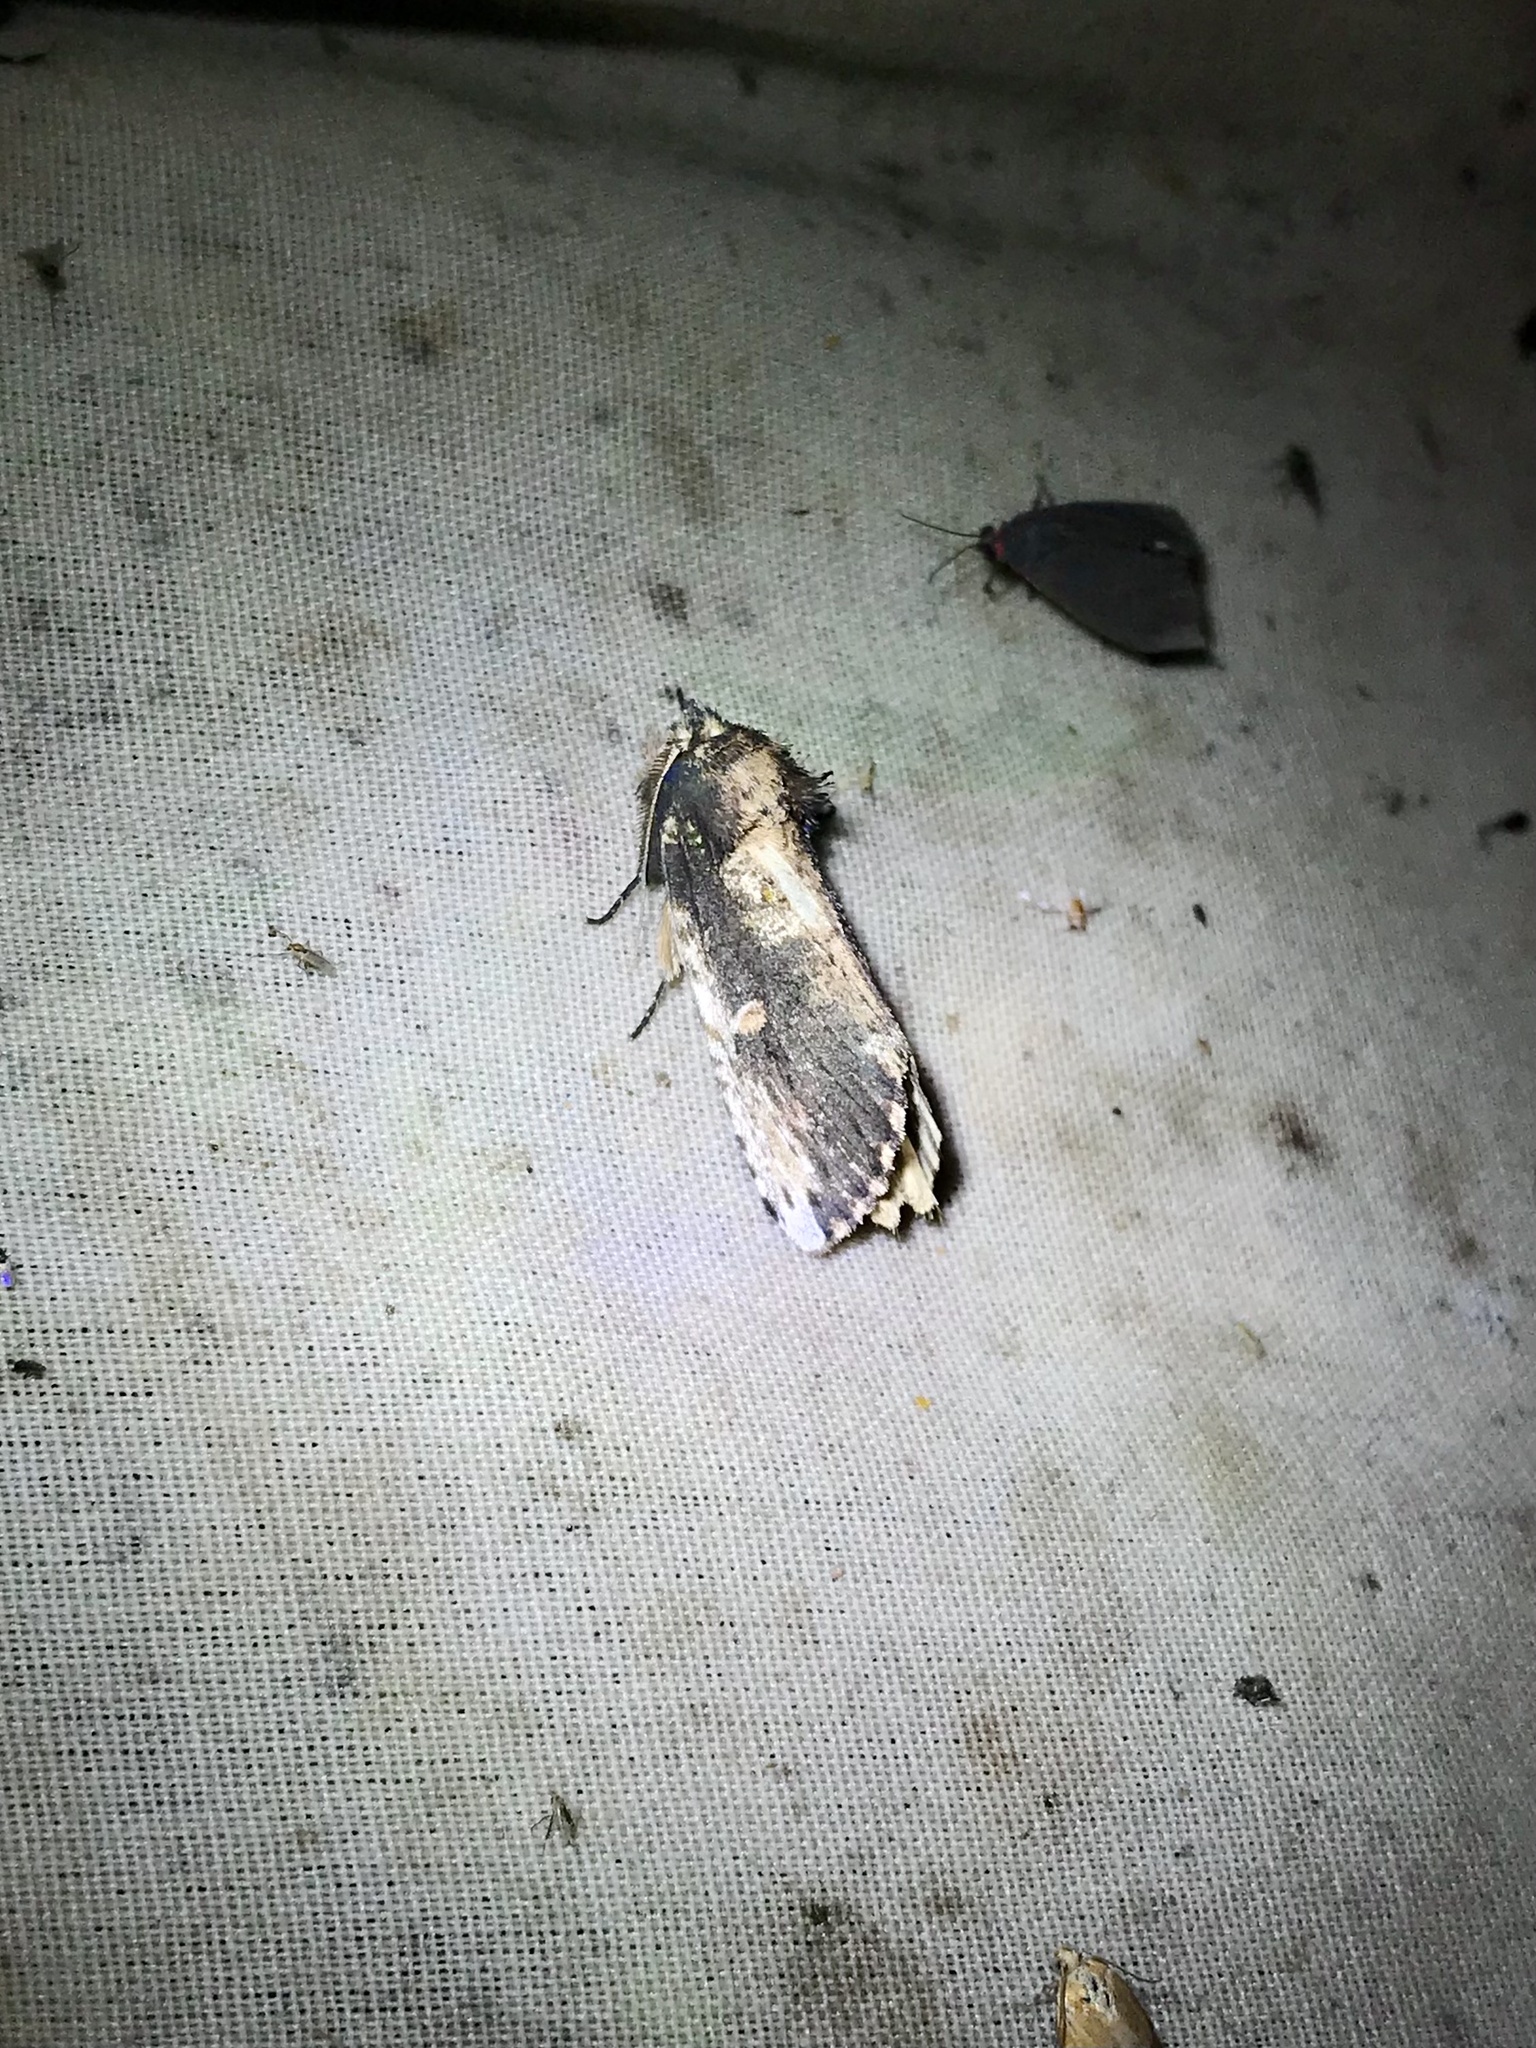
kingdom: Animalia
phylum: Arthropoda
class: Insecta
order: Lepidoptera
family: Notodontidae
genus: Schizura
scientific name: Schizura ipomaeae
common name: Morning-glory prominent
